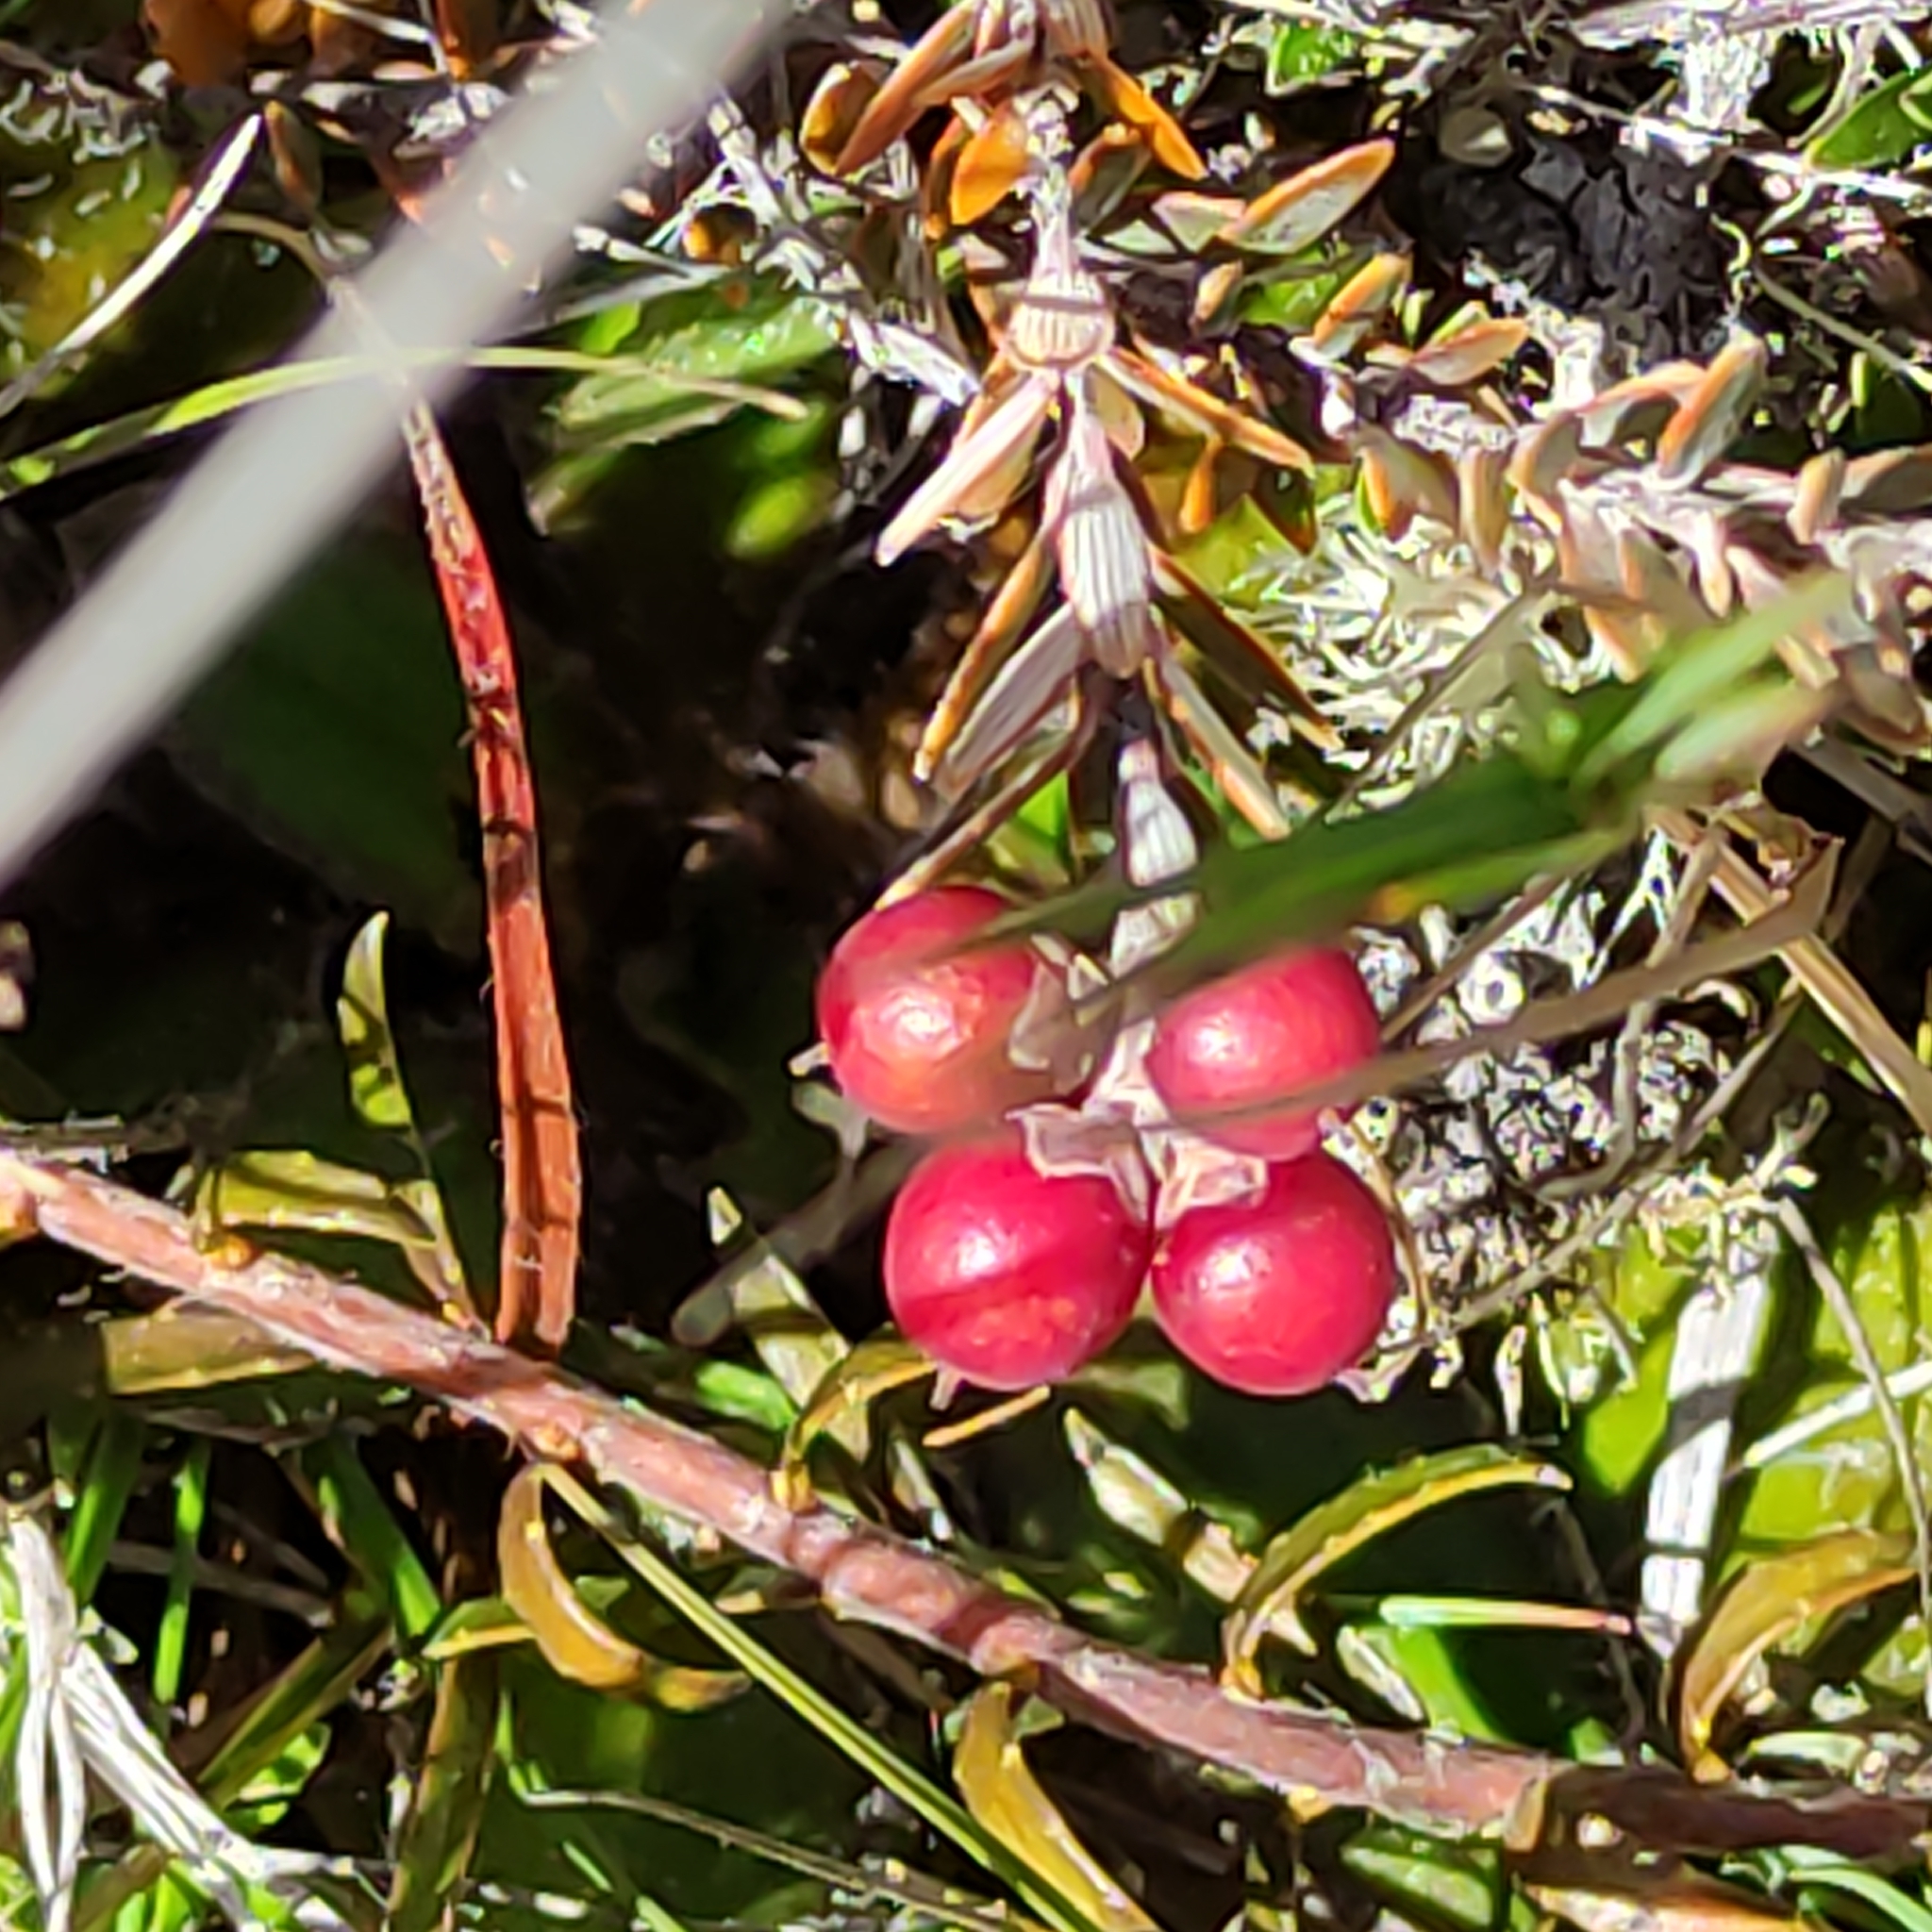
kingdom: Plantae
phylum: Tracheophyta
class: Magnoliopsida
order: Ericales
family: Ericaceae
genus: Acrothamnus
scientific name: Acrothamnus colensoi
